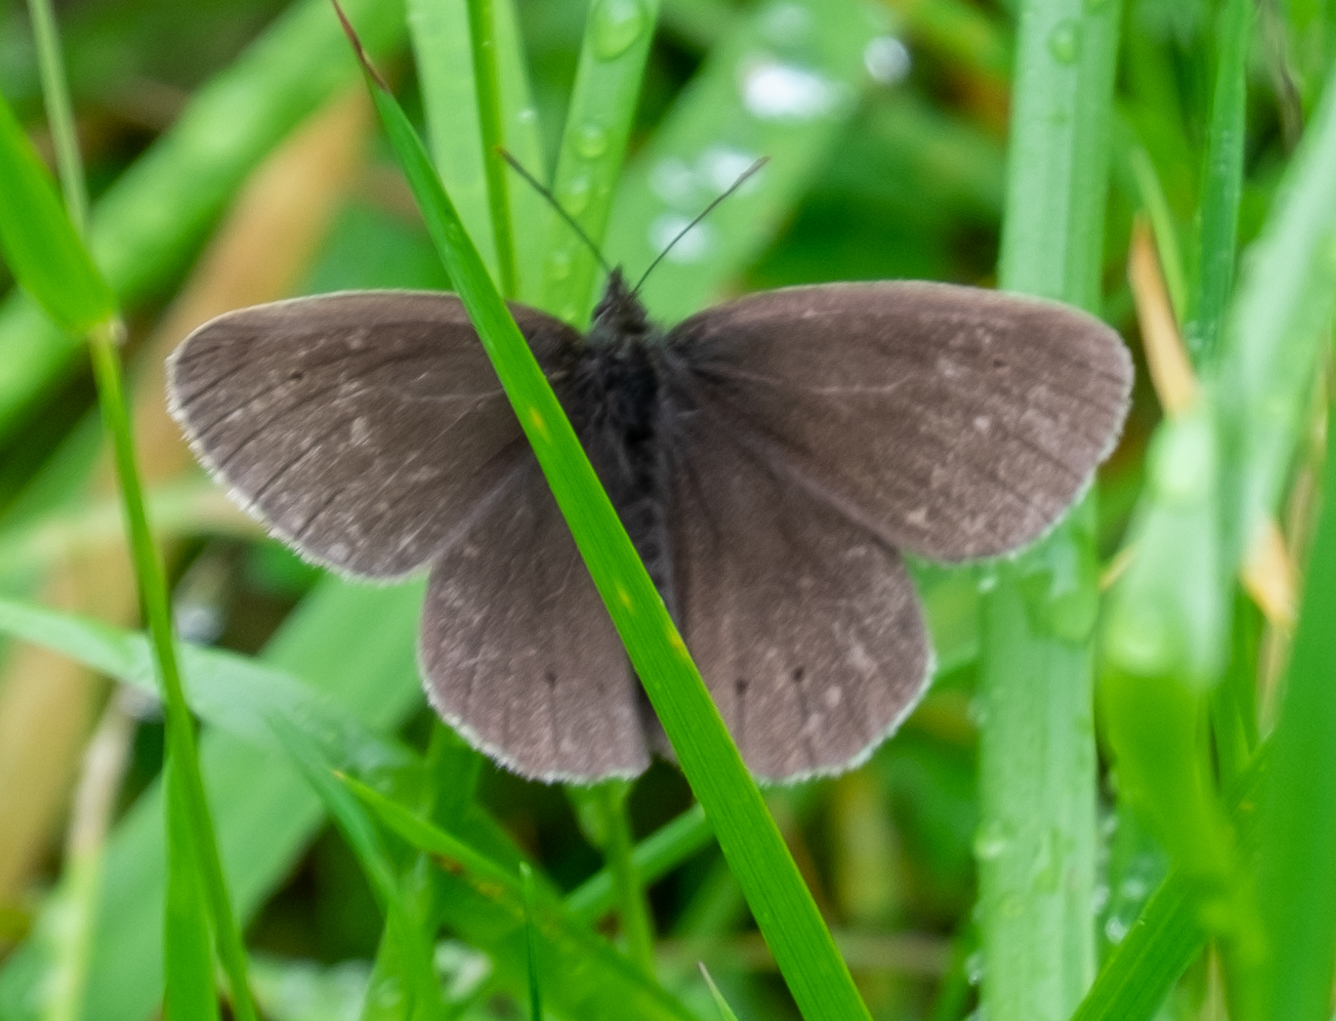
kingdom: Animalia
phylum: Arthropoda
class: Insecta
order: Lepidoptera
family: Nymphalidae
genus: Aphantopus
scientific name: Aphantopus hyperantus
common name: Ringlet
